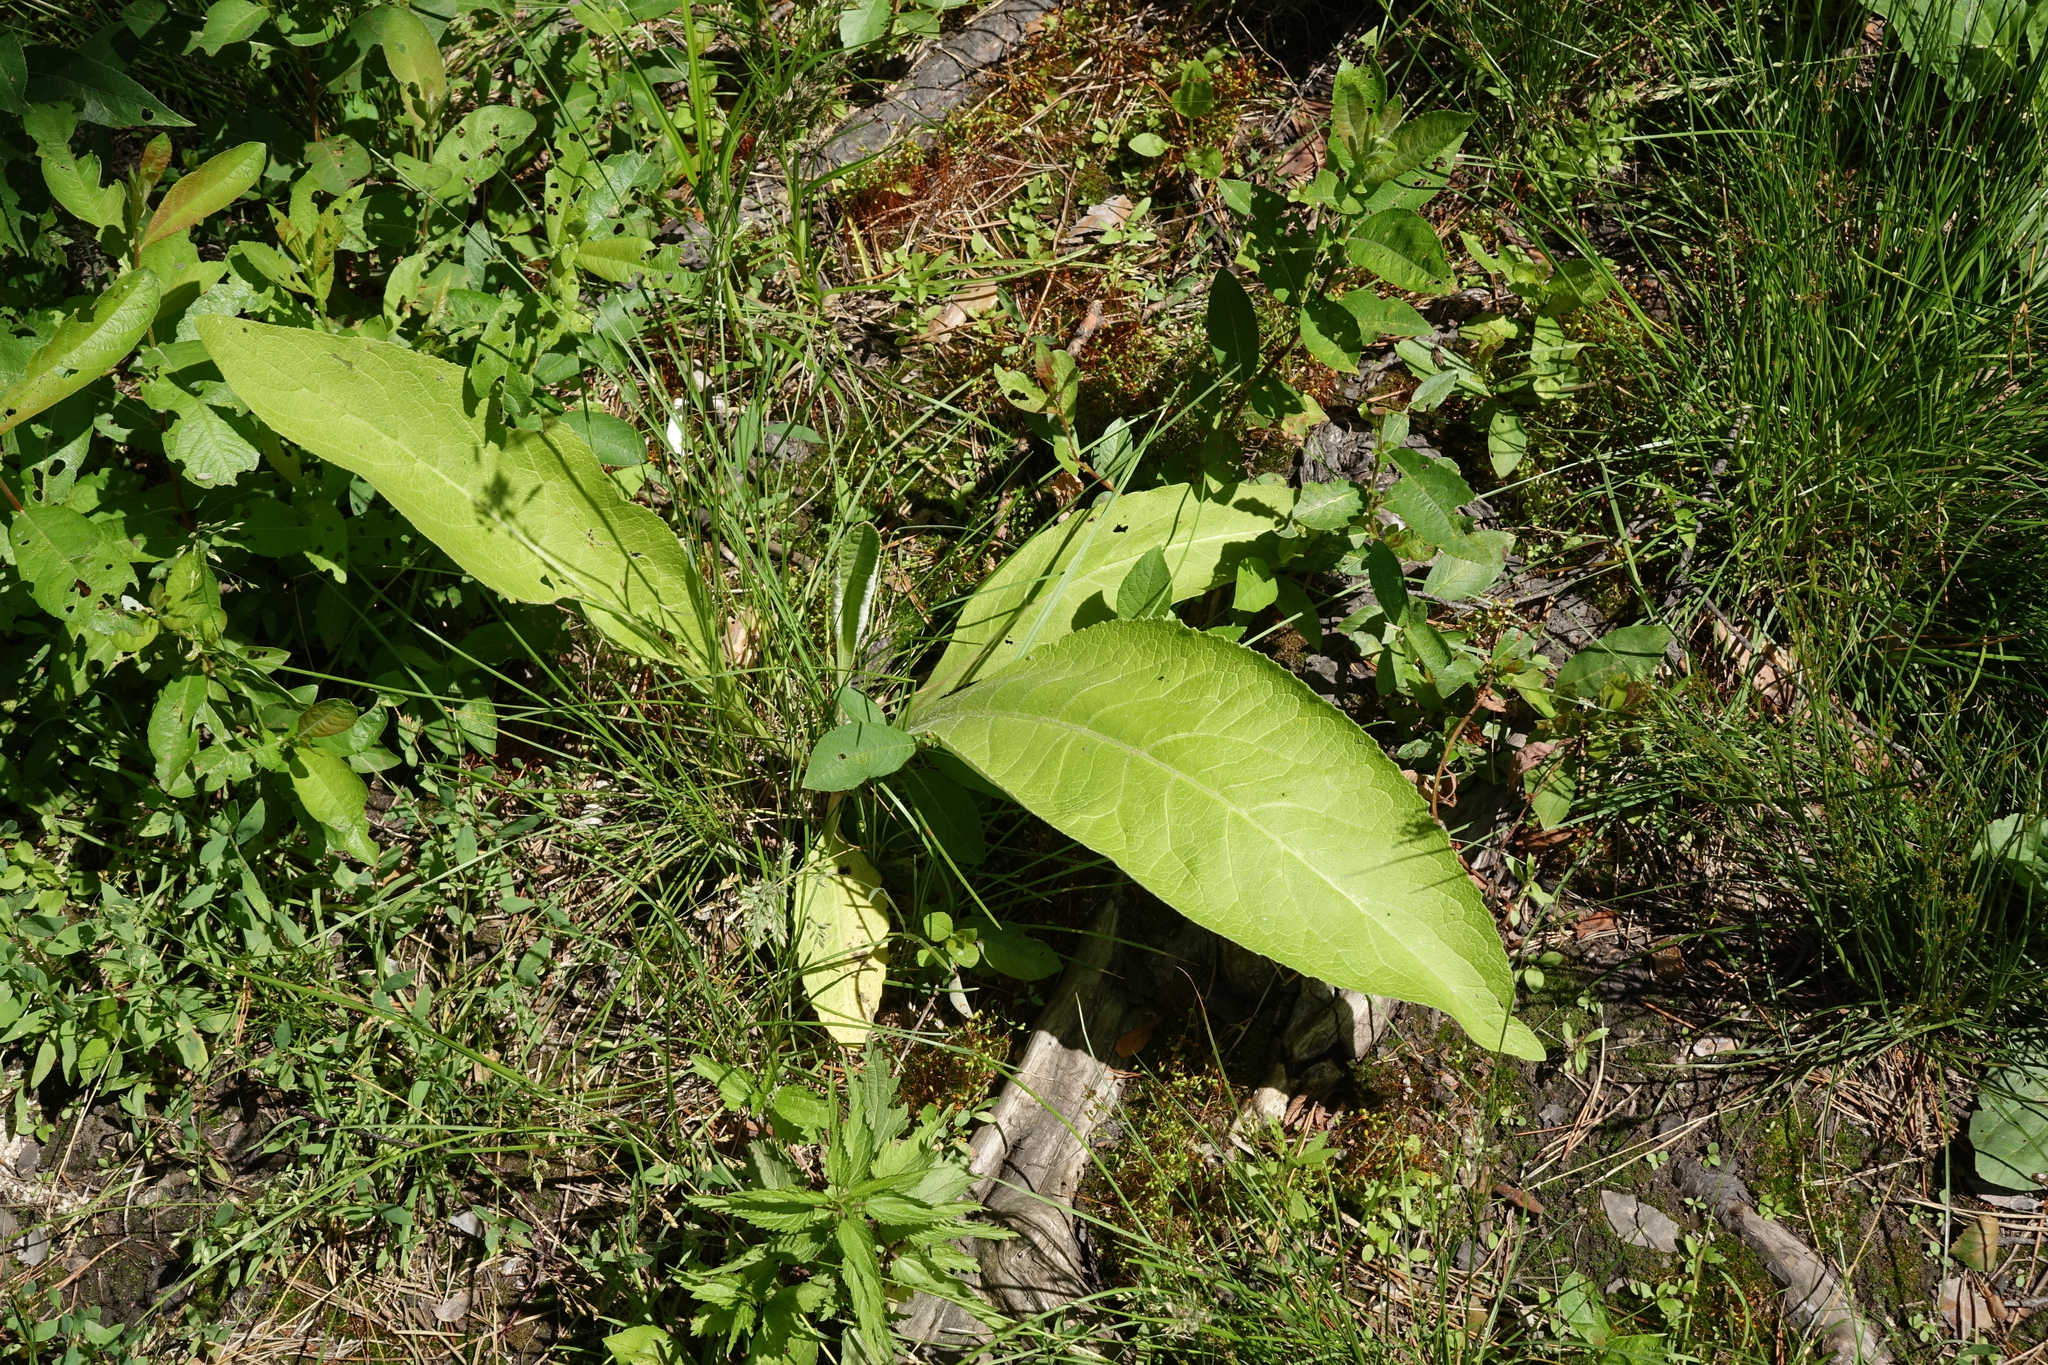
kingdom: Plantae
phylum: Tracheophyta
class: Magnoliopsida
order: Asterales
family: Asteraceae
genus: Inula
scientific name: Inula helenium
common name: Elecampane
